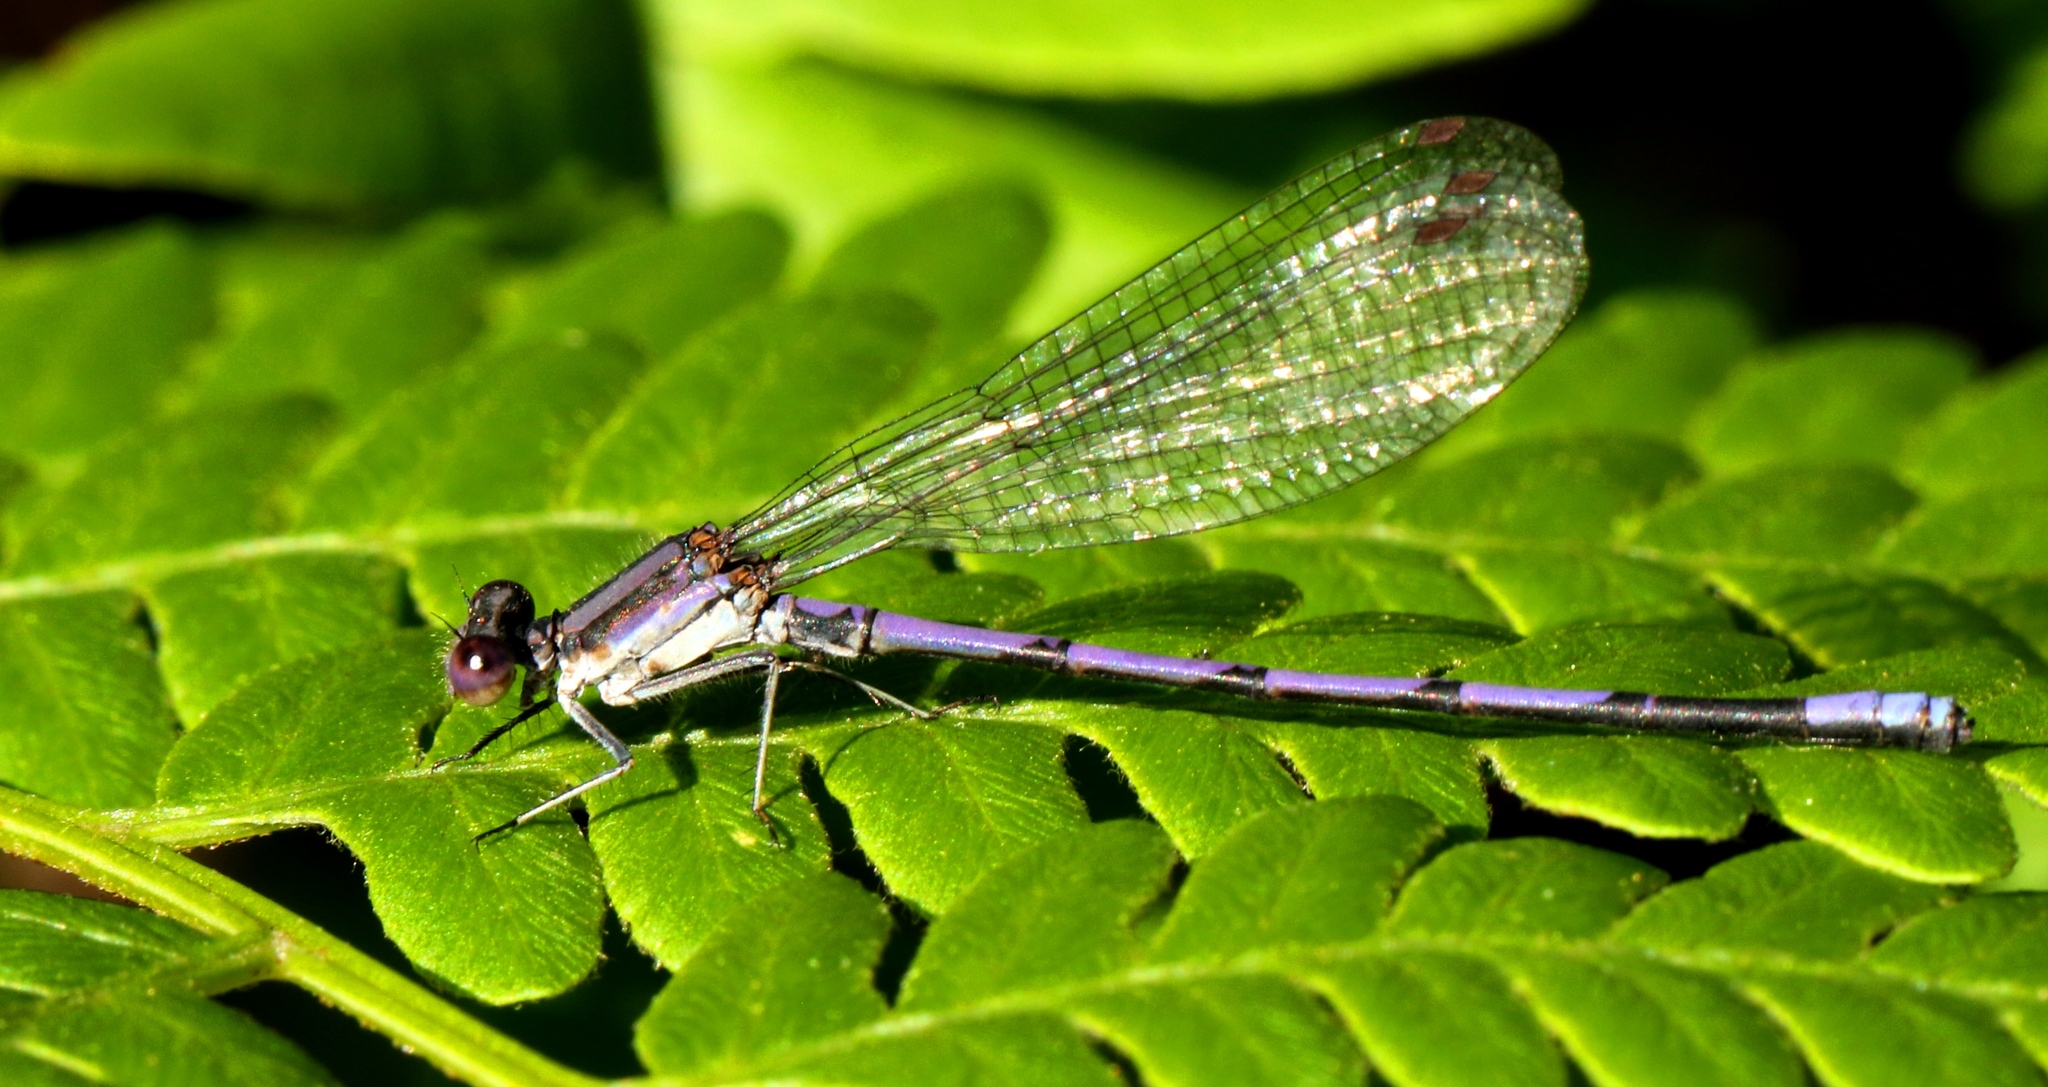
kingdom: Animalia
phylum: Arthropoda
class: Insecta
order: Odonata
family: Coenagrionidae
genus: Argia
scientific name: Argia fumipennis
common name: Variable dancer
